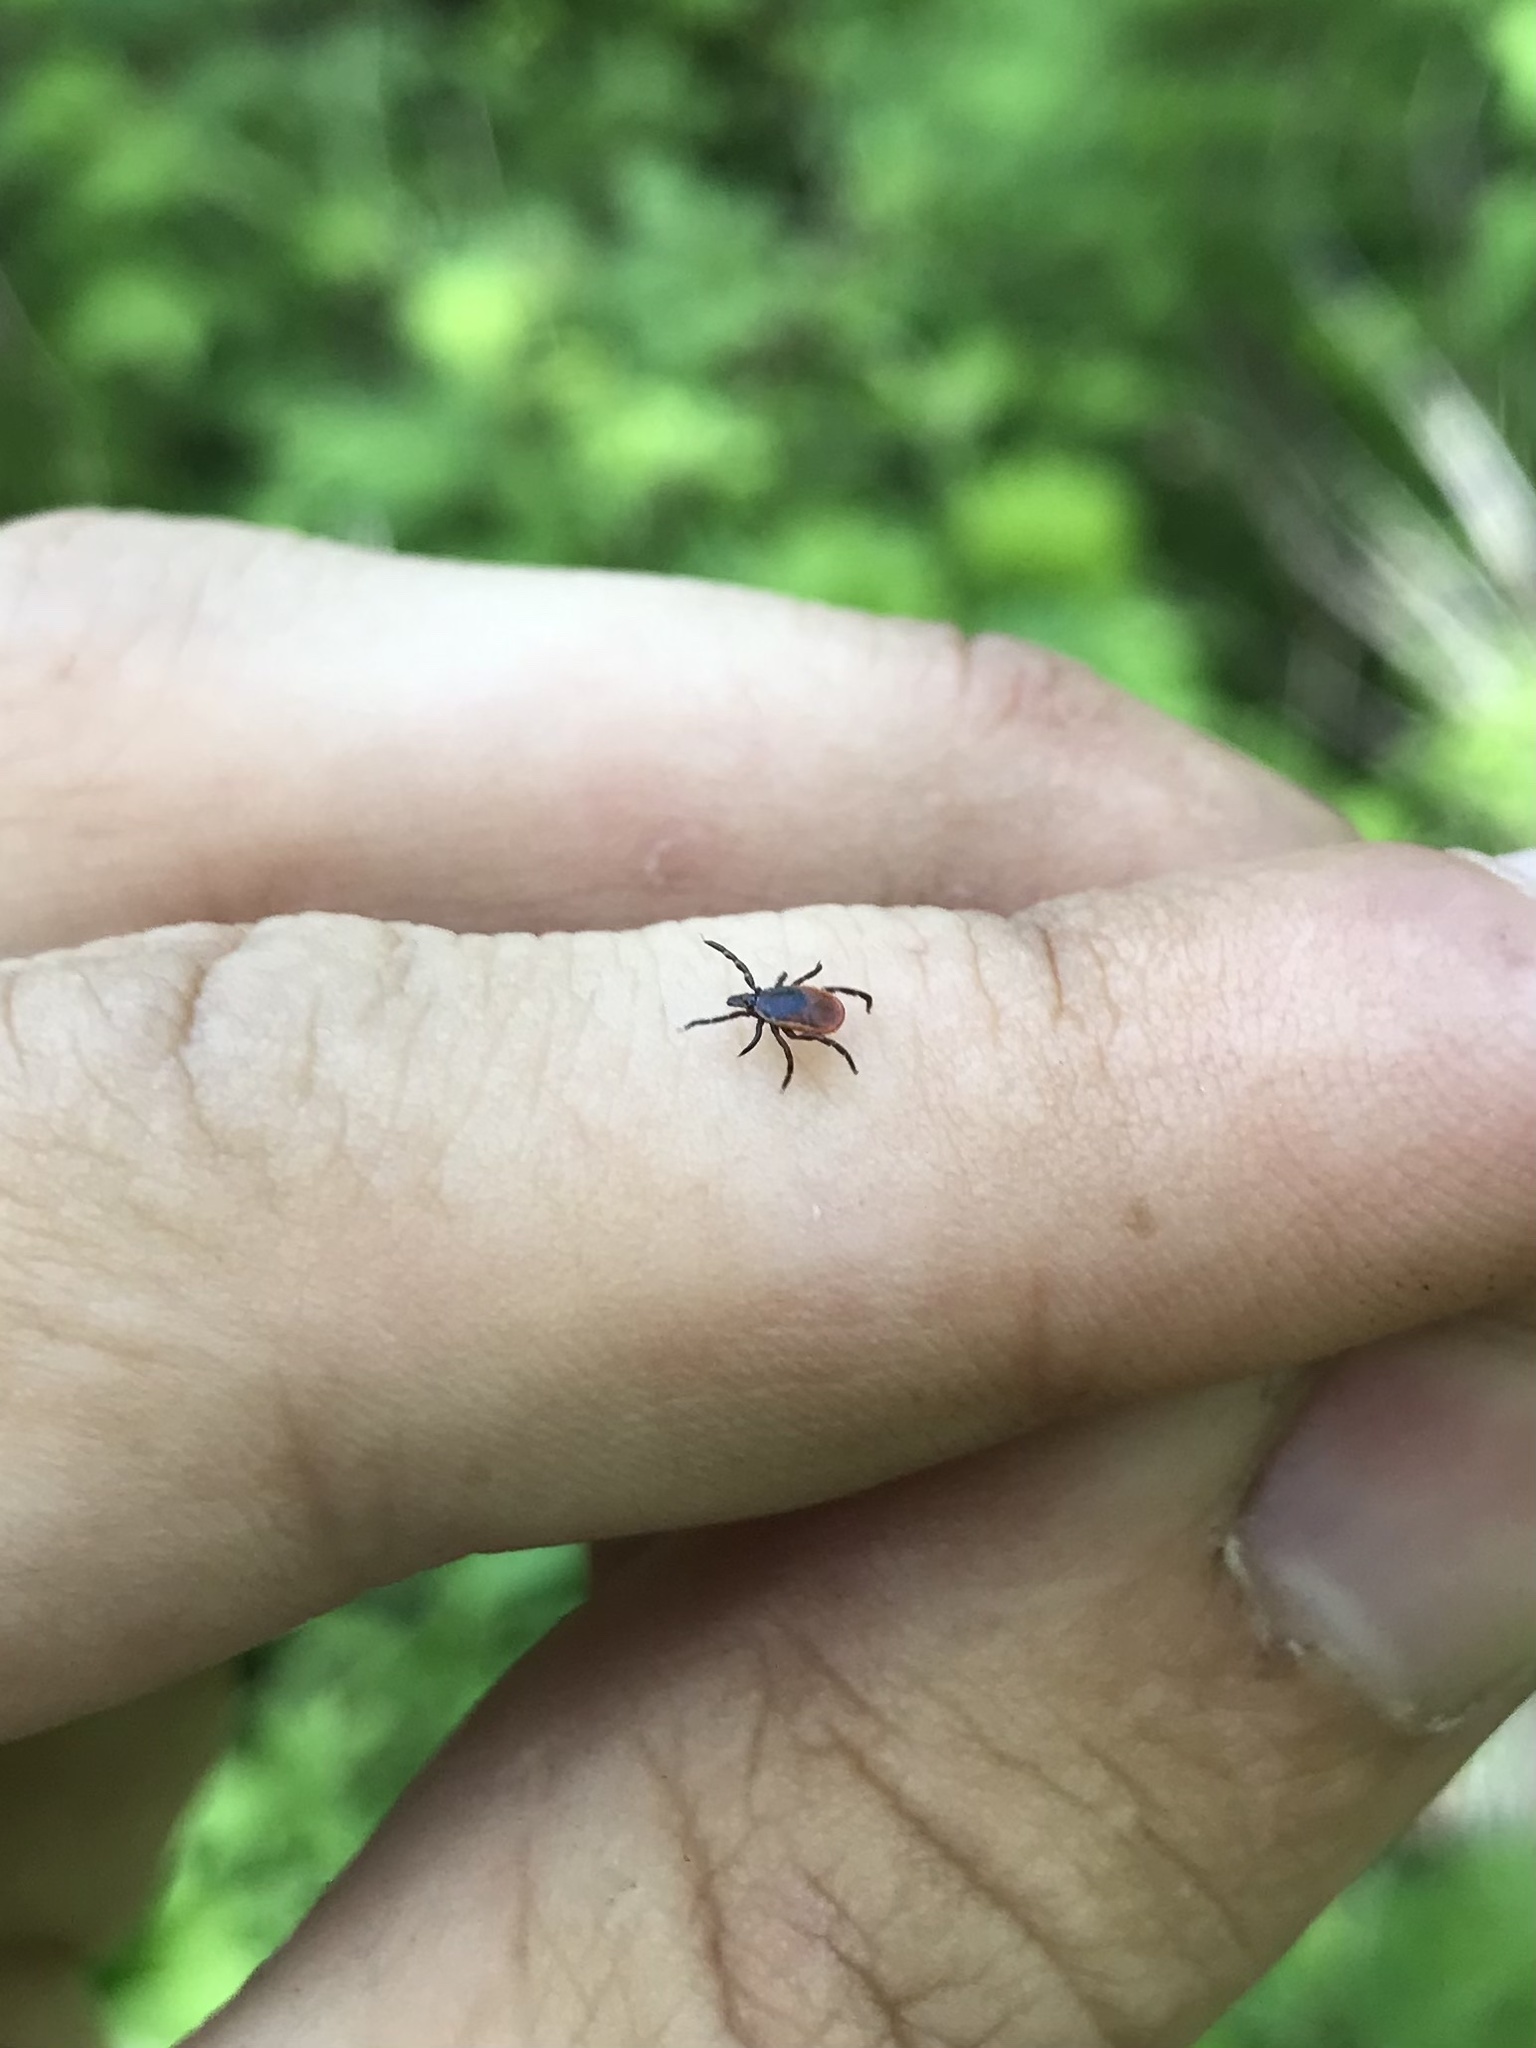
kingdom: Animalia
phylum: Arthropoda
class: Arachnida
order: Ixodida
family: Ixodidae
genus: Ixodes
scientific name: Ixodes scapularis
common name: Black legged tick
